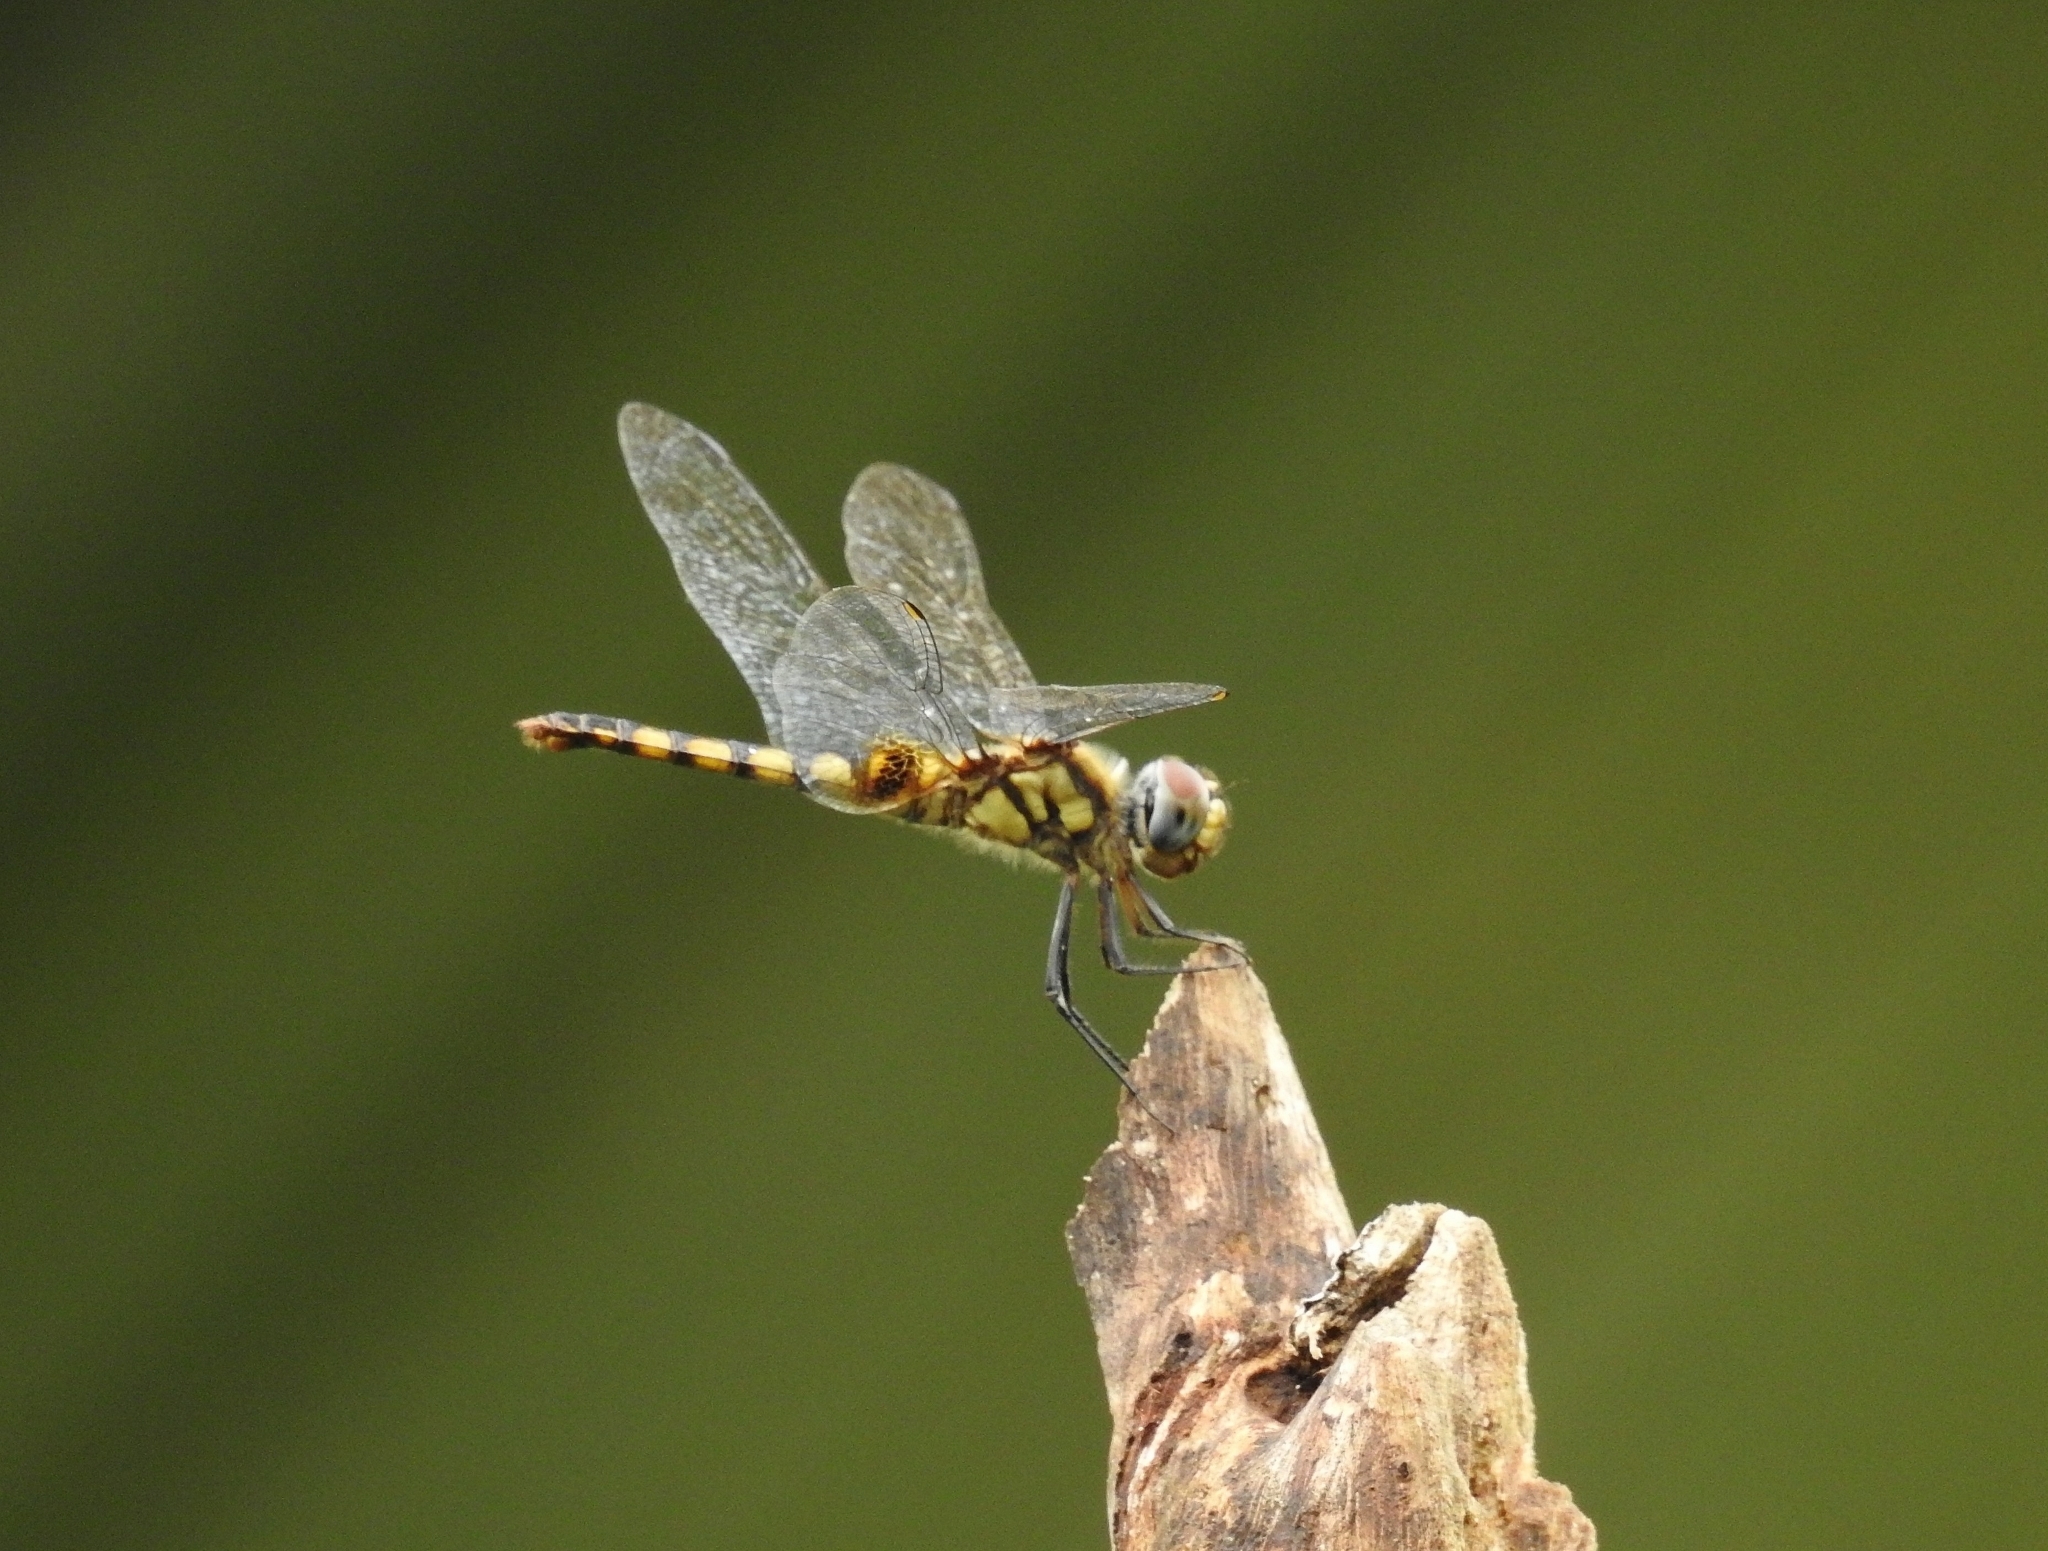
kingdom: Animalia
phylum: Arthropoda
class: Insecta
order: Odonata
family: Libellulidae
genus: Urothemis
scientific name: Urothemis signata
